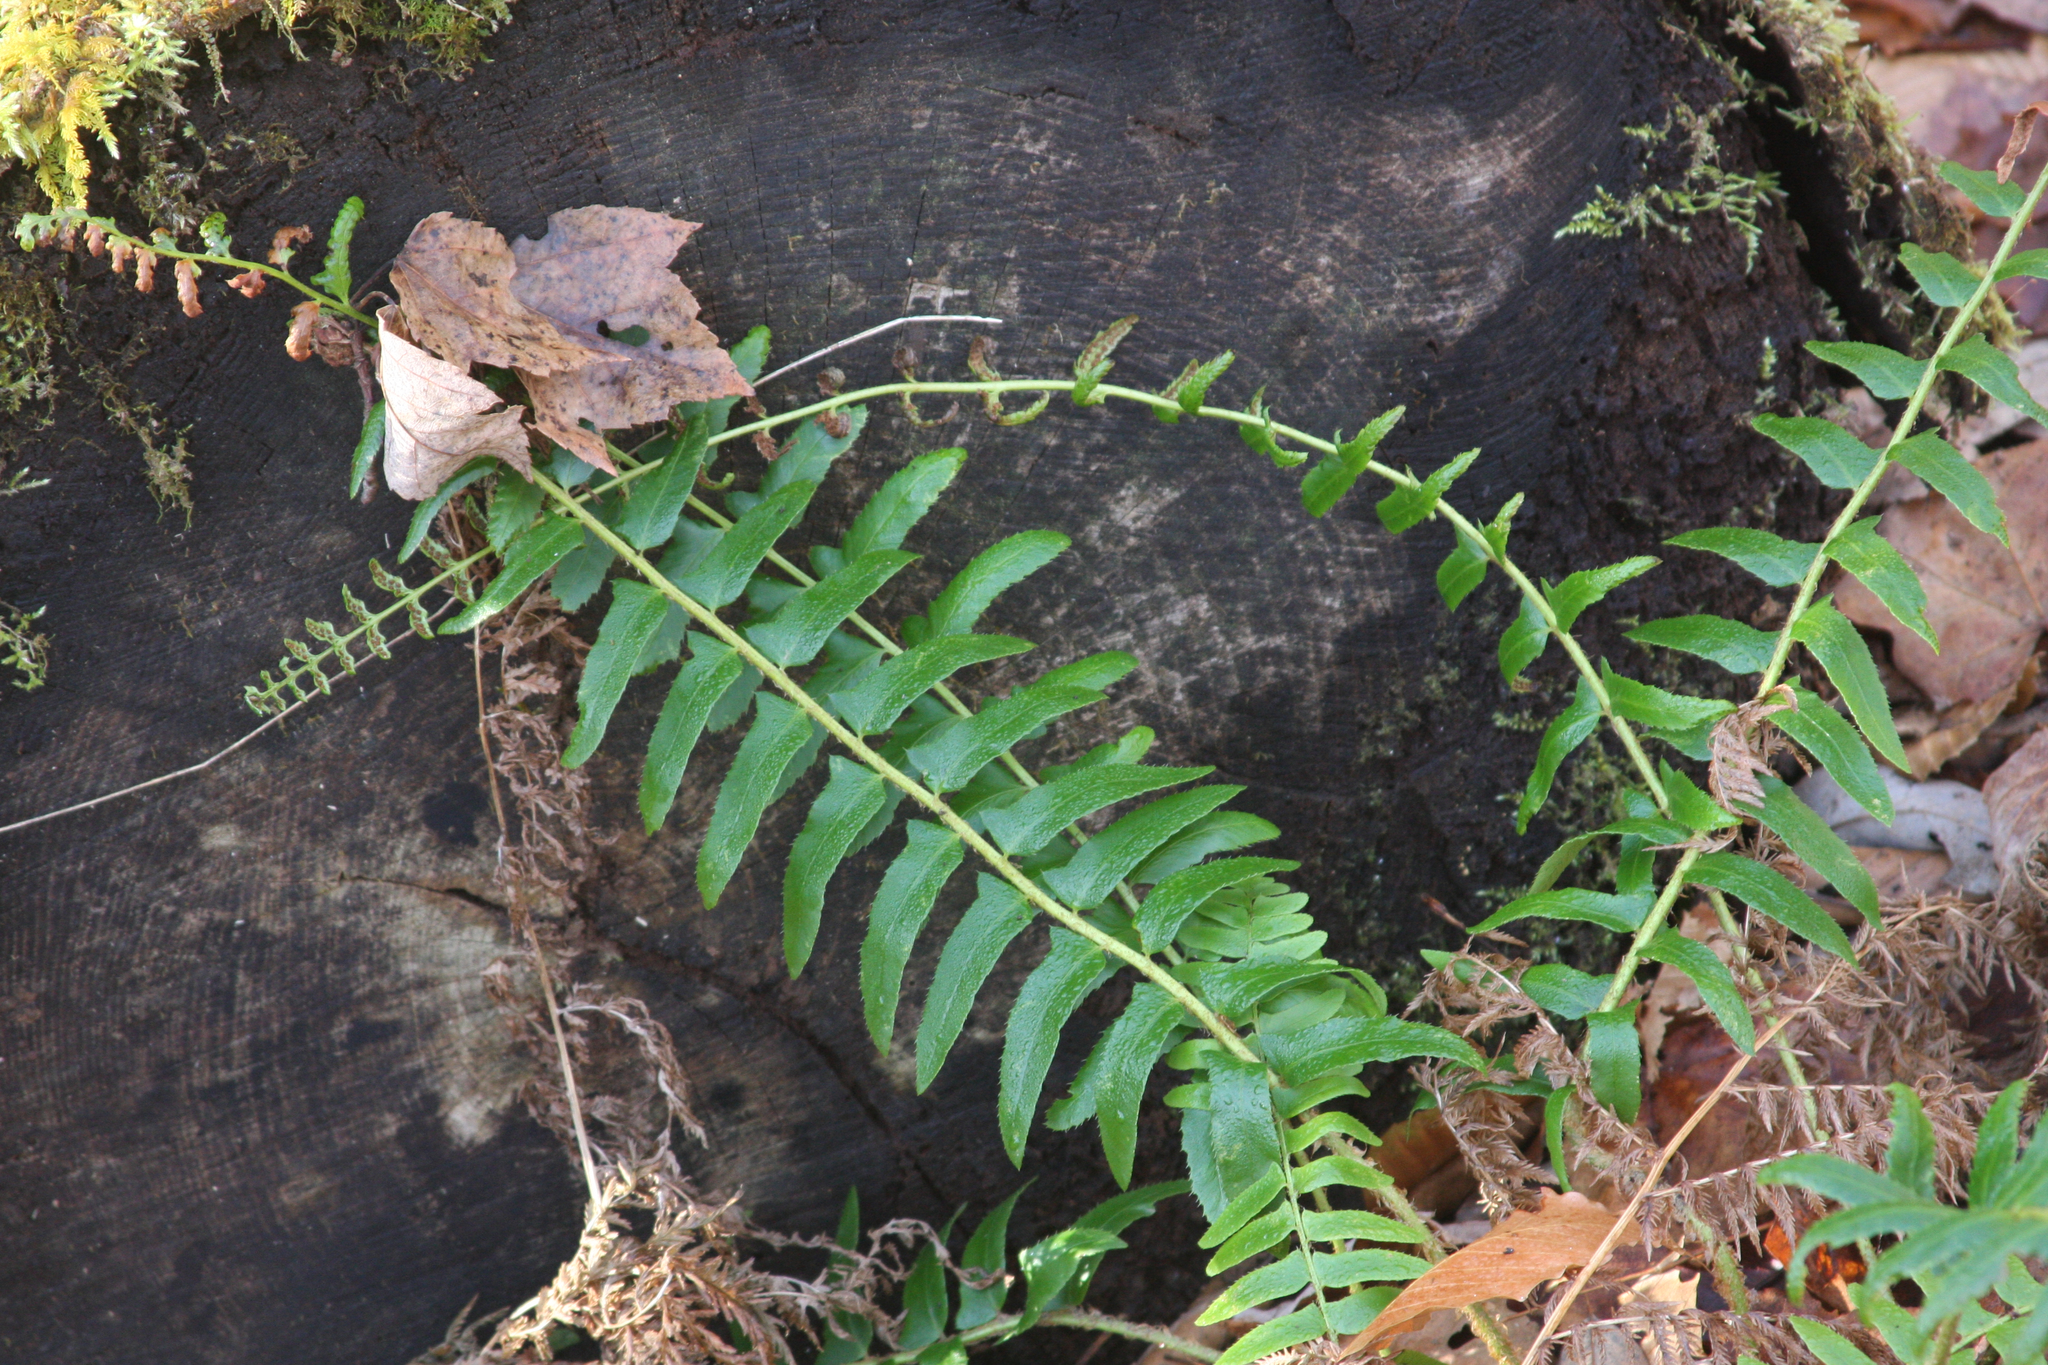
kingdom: Plantae
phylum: Tracheophyta
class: Polypodiopsida
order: Polypodiales
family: Dryopteridaceae
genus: Polystichum
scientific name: Polystichum acrostichoides
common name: Christmas fern
